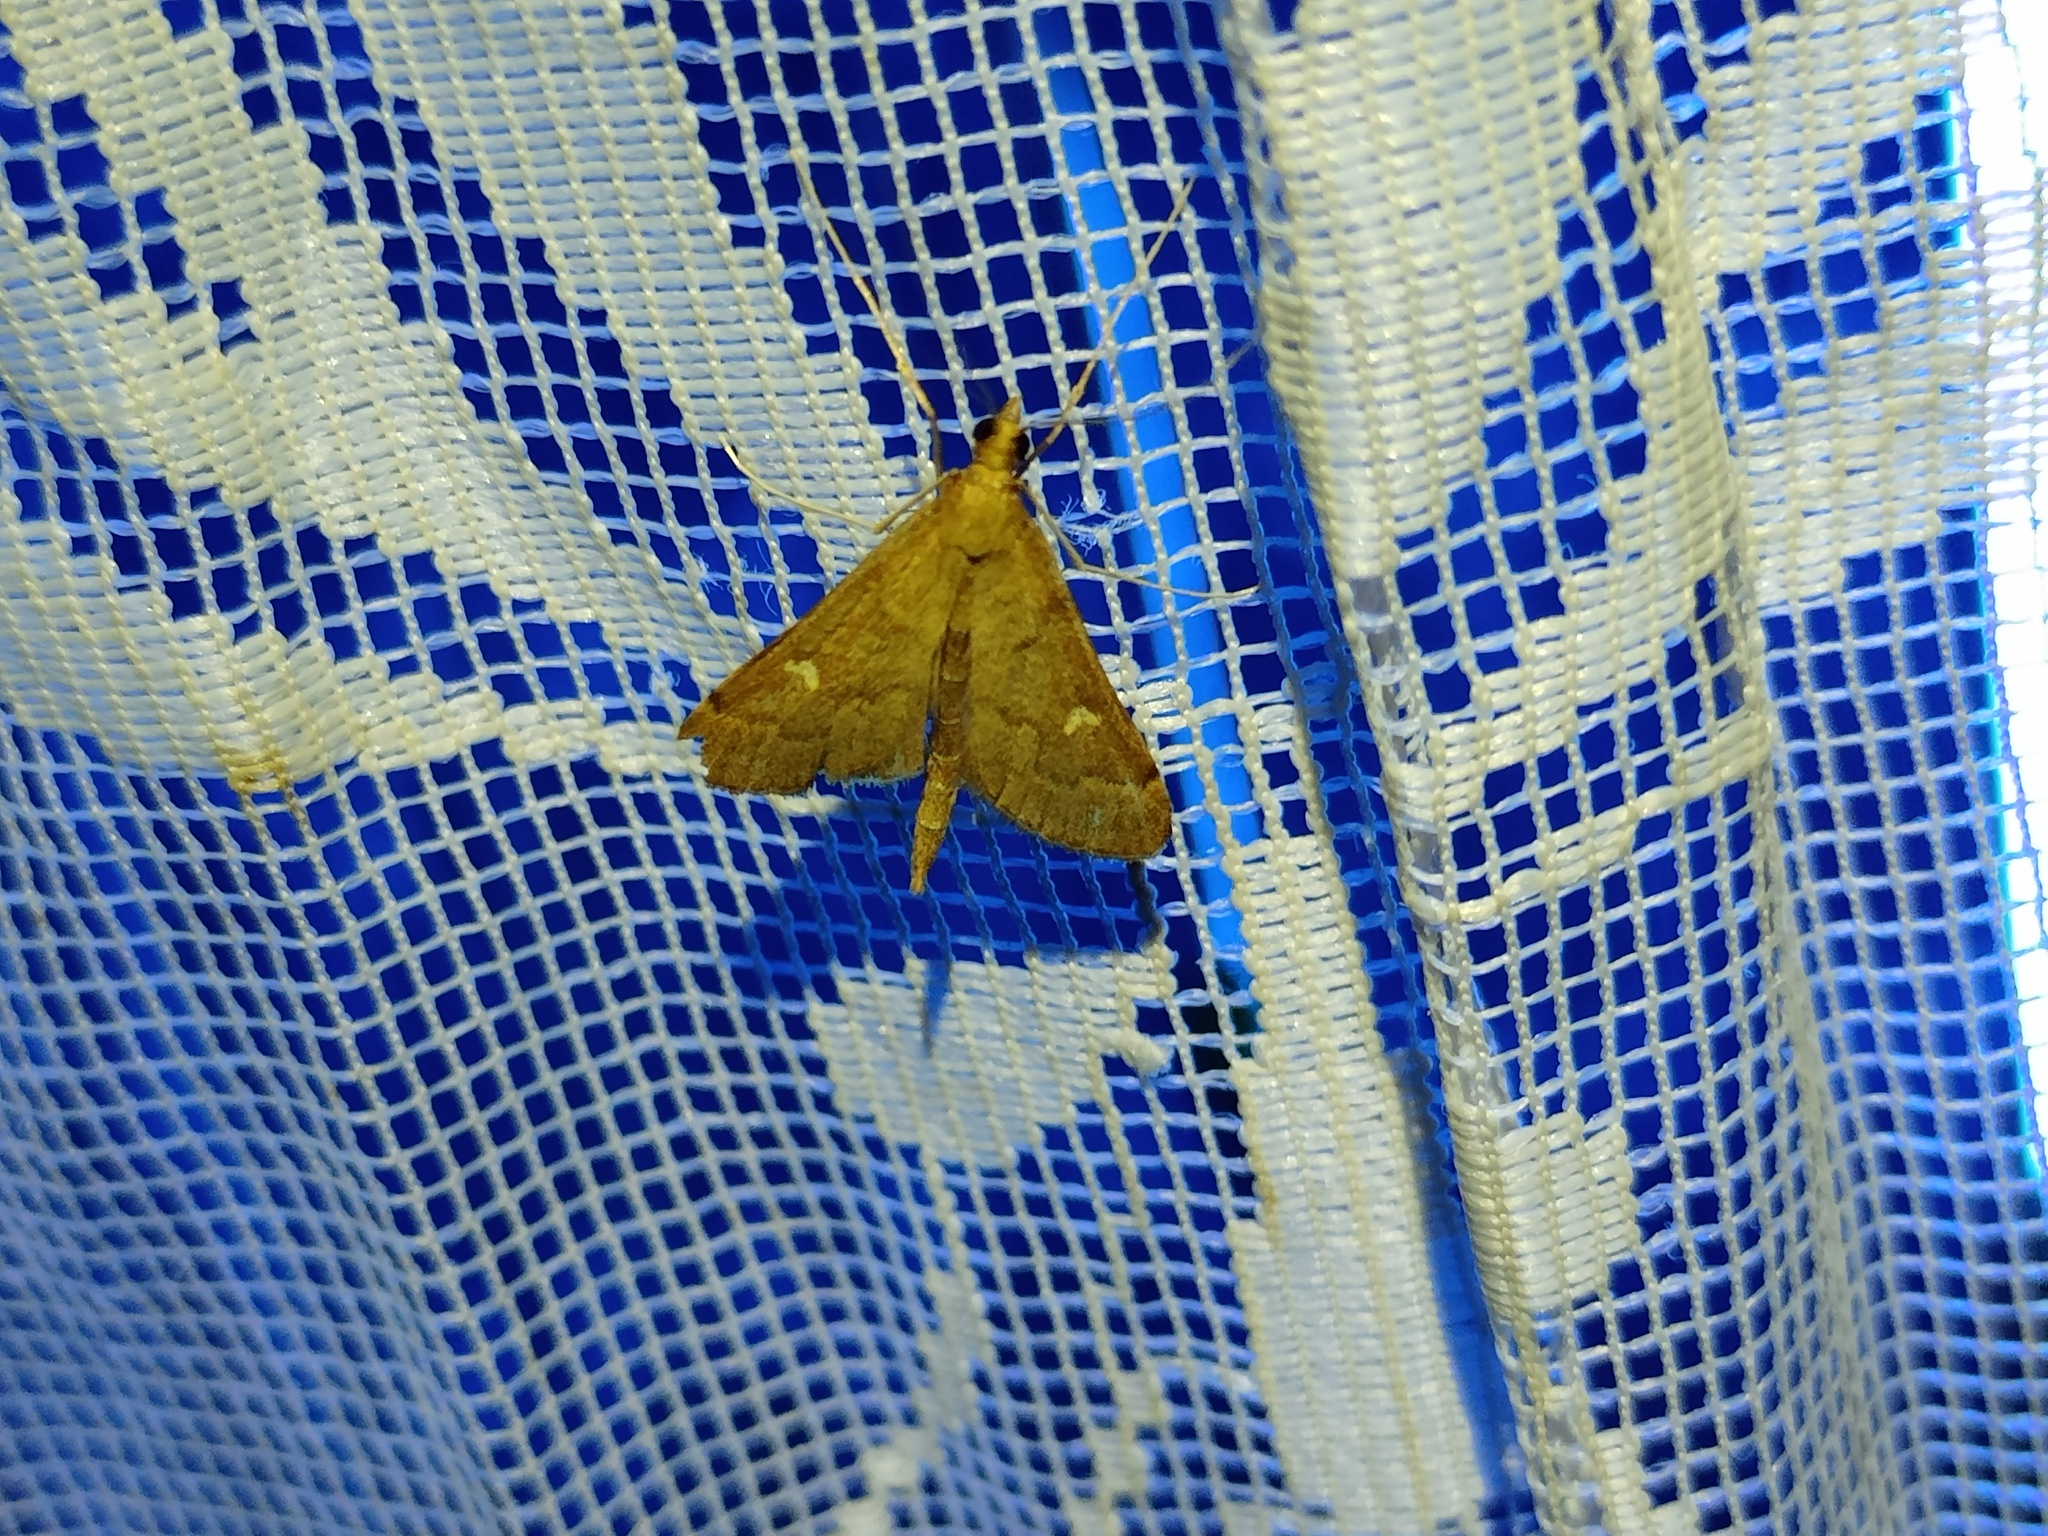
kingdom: Animalia
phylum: Arthropoda
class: Insecta
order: Lepidoptera
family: Crambidae
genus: Stenia
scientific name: Stenia Dolicharthria punctalis
